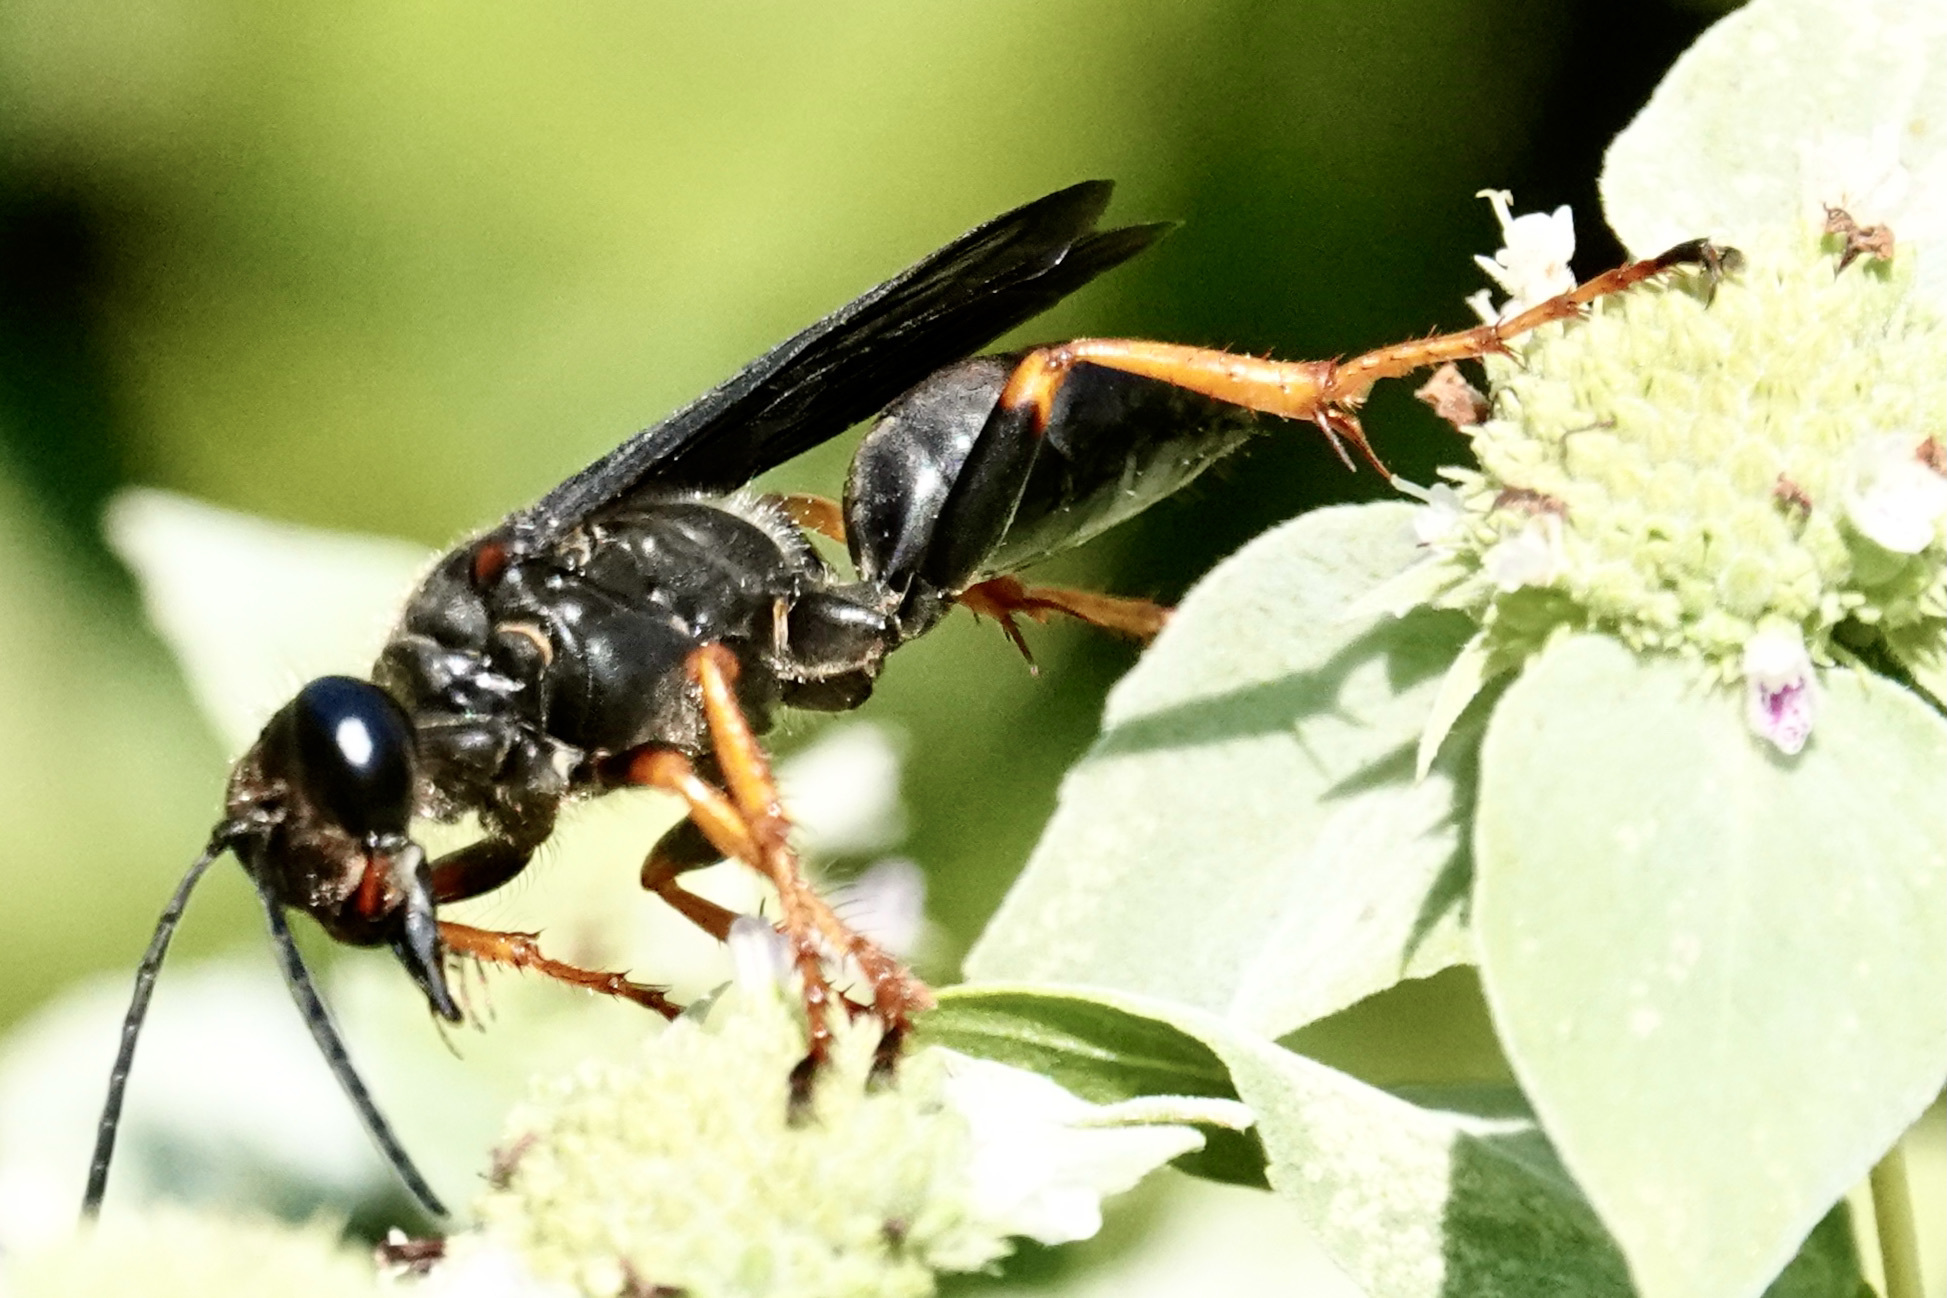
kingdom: Animalia
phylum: Arthropoda
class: Insecta
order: Hymenoptera
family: Sphecidae
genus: Sphex
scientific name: Sphex nudus
